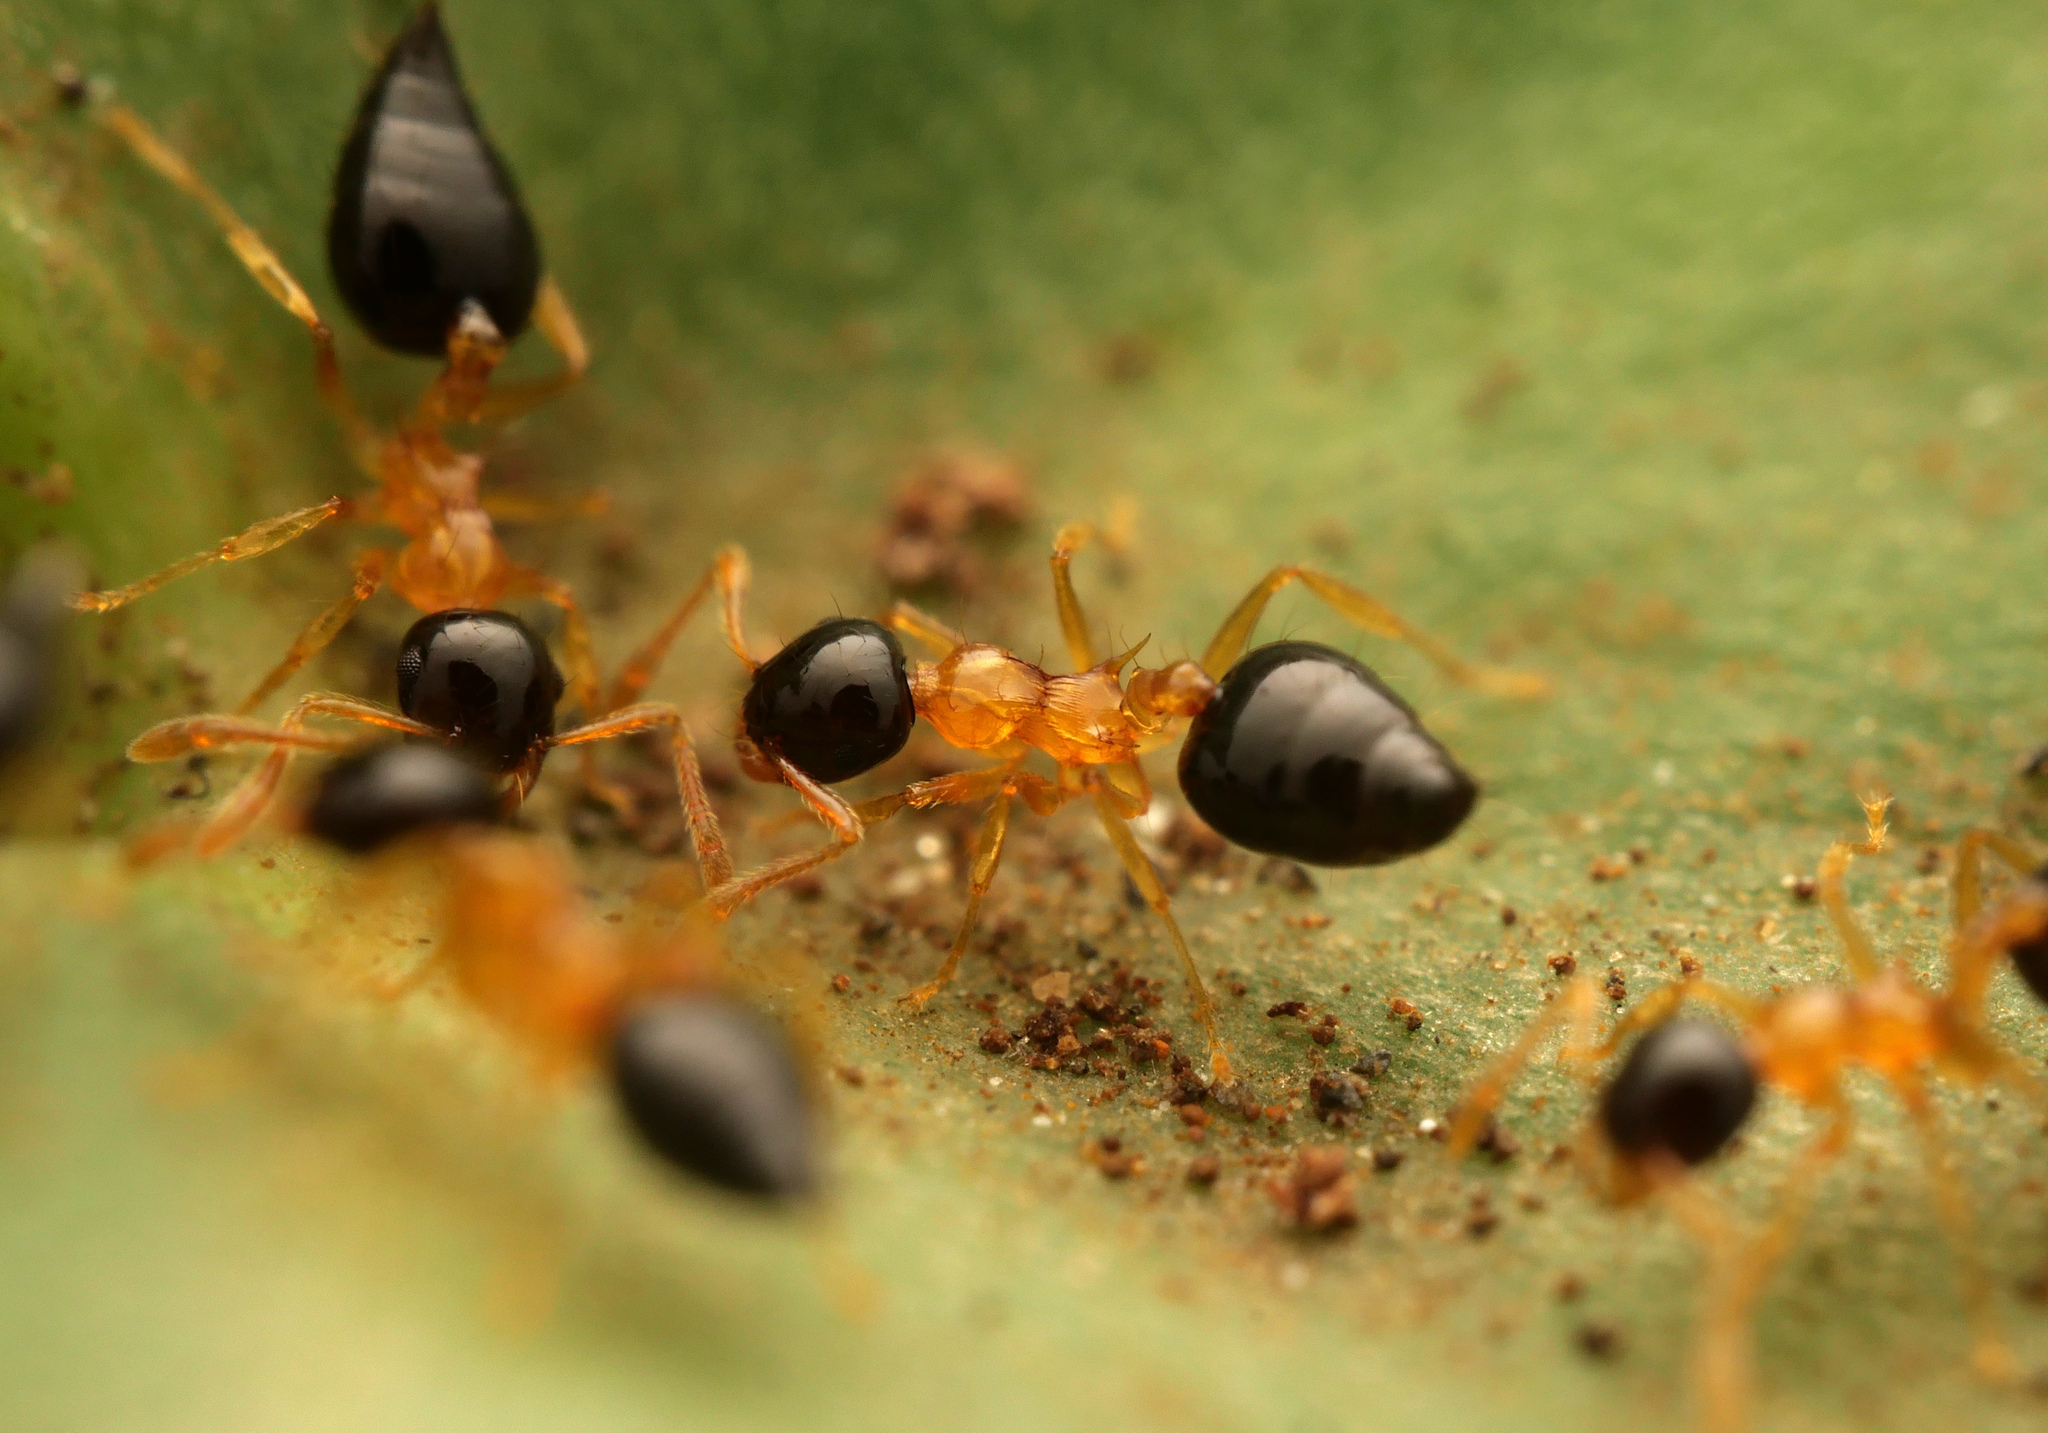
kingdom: Animalia
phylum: Arthropoda
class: Insecta
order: Hymenoptera
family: Formicidae
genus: Crematogaster
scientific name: Crematogaster emeryi
